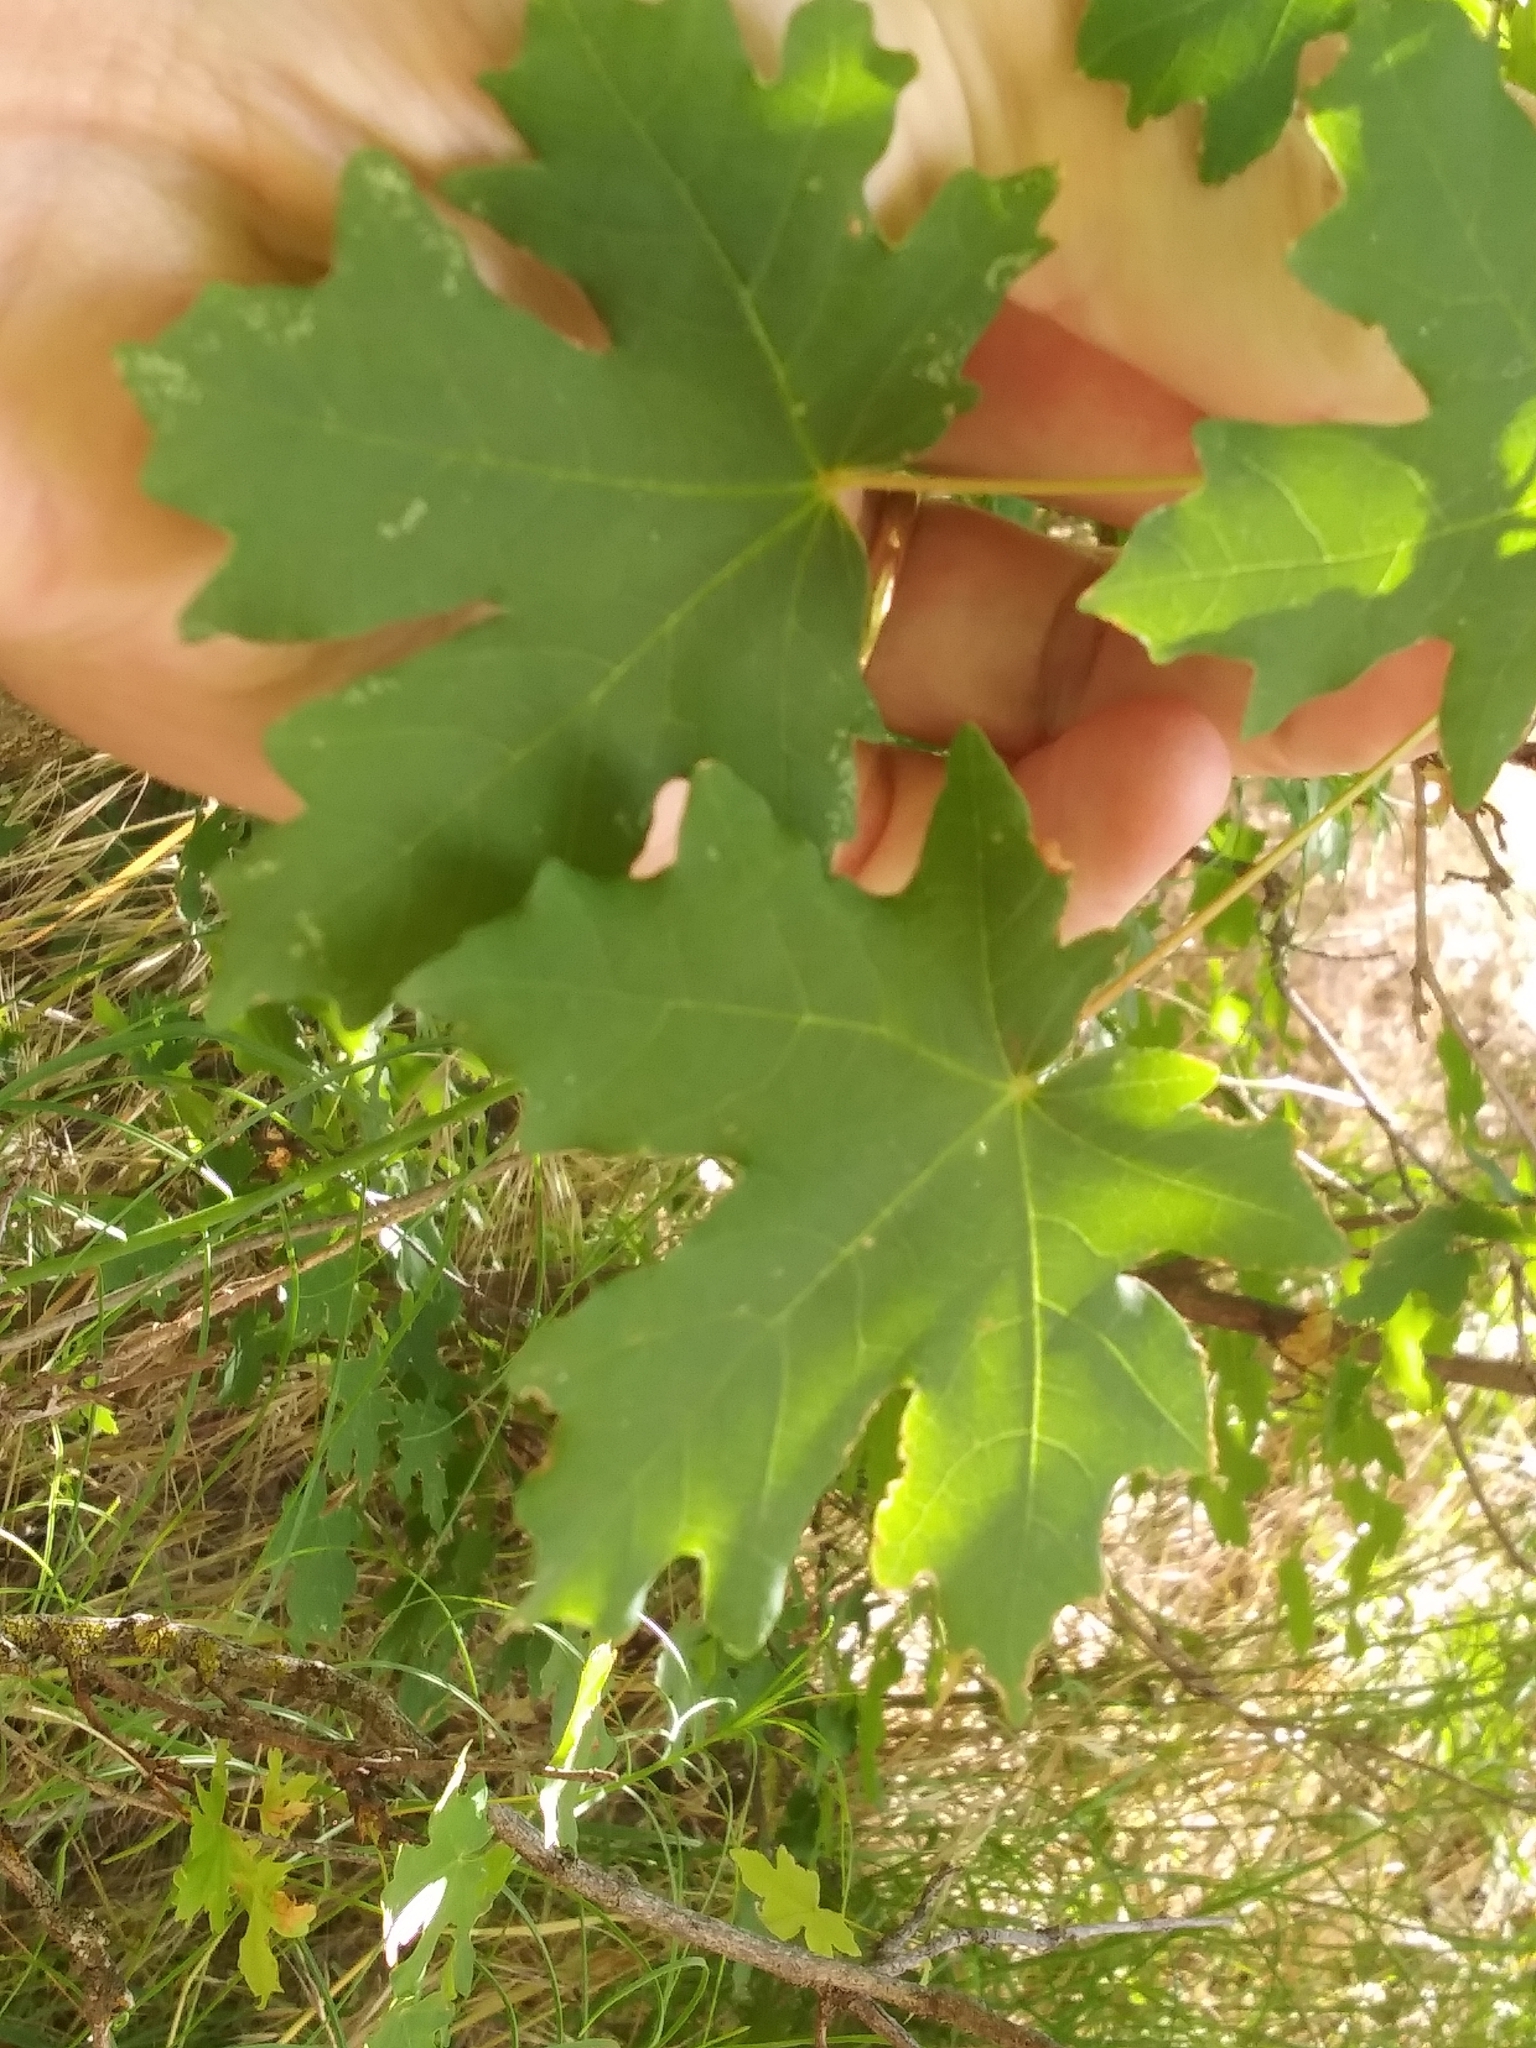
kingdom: Plantae
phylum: Tracheophyta
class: Magnoliopsida
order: Sapindales
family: Sapindaceae
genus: Acer
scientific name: Acer grandidentatum
